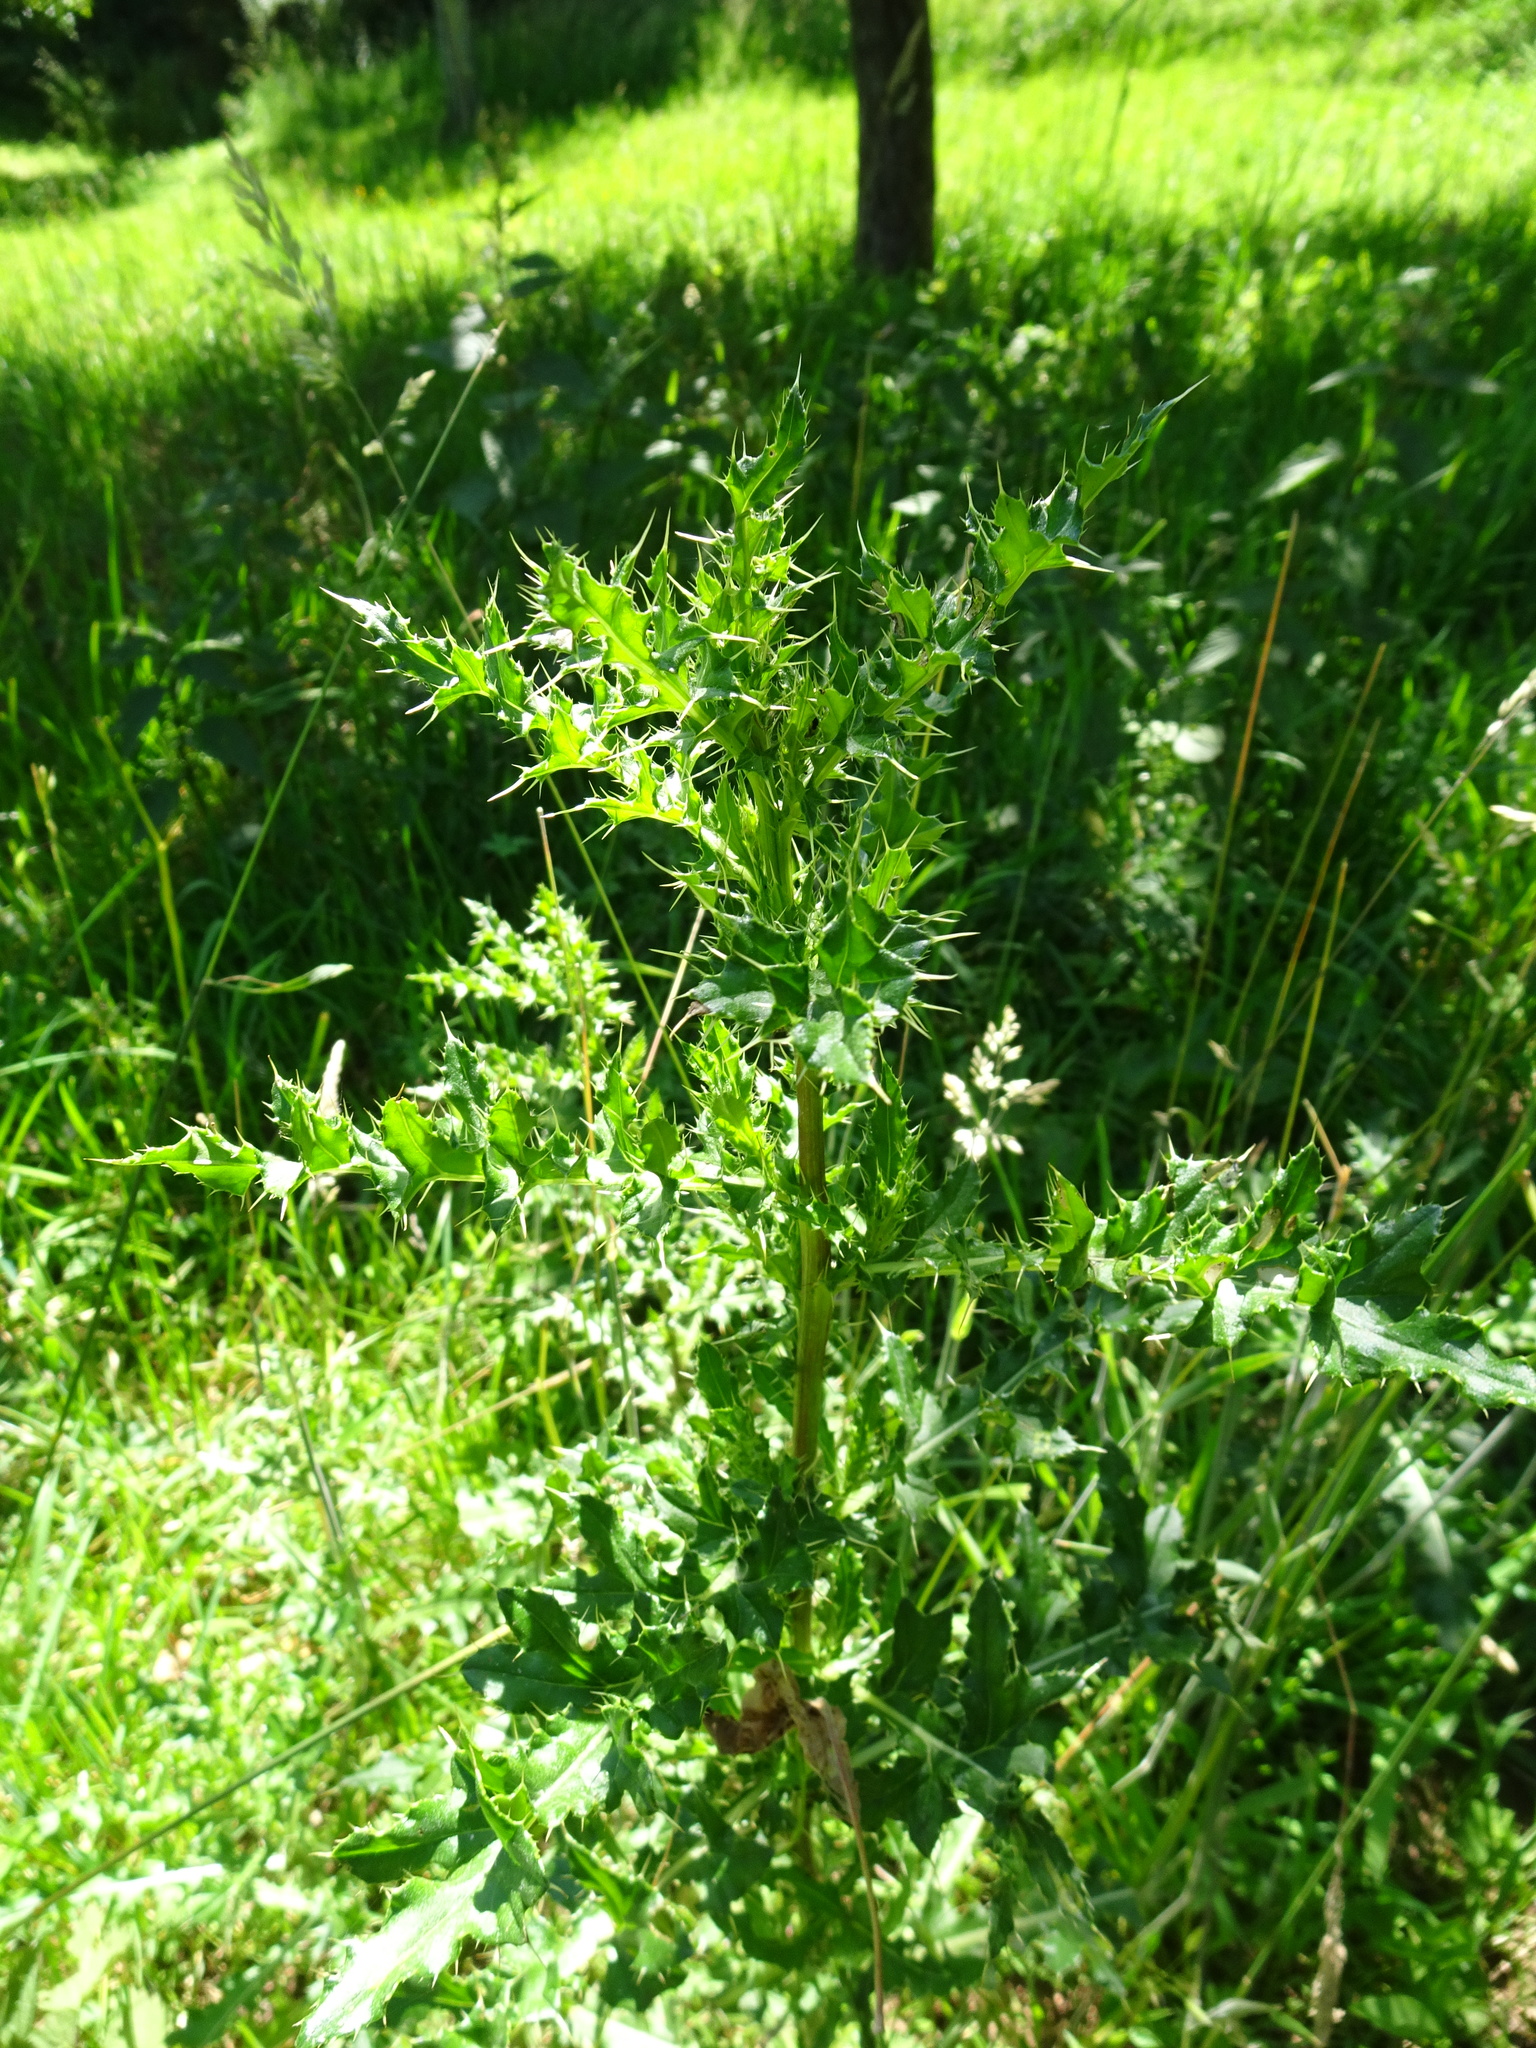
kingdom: Plantae
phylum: Tracheophyta
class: Magnoliopsida
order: Asterales
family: Asteraceae
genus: Cirsium
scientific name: Cirsium arvense
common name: Creeping thistle
